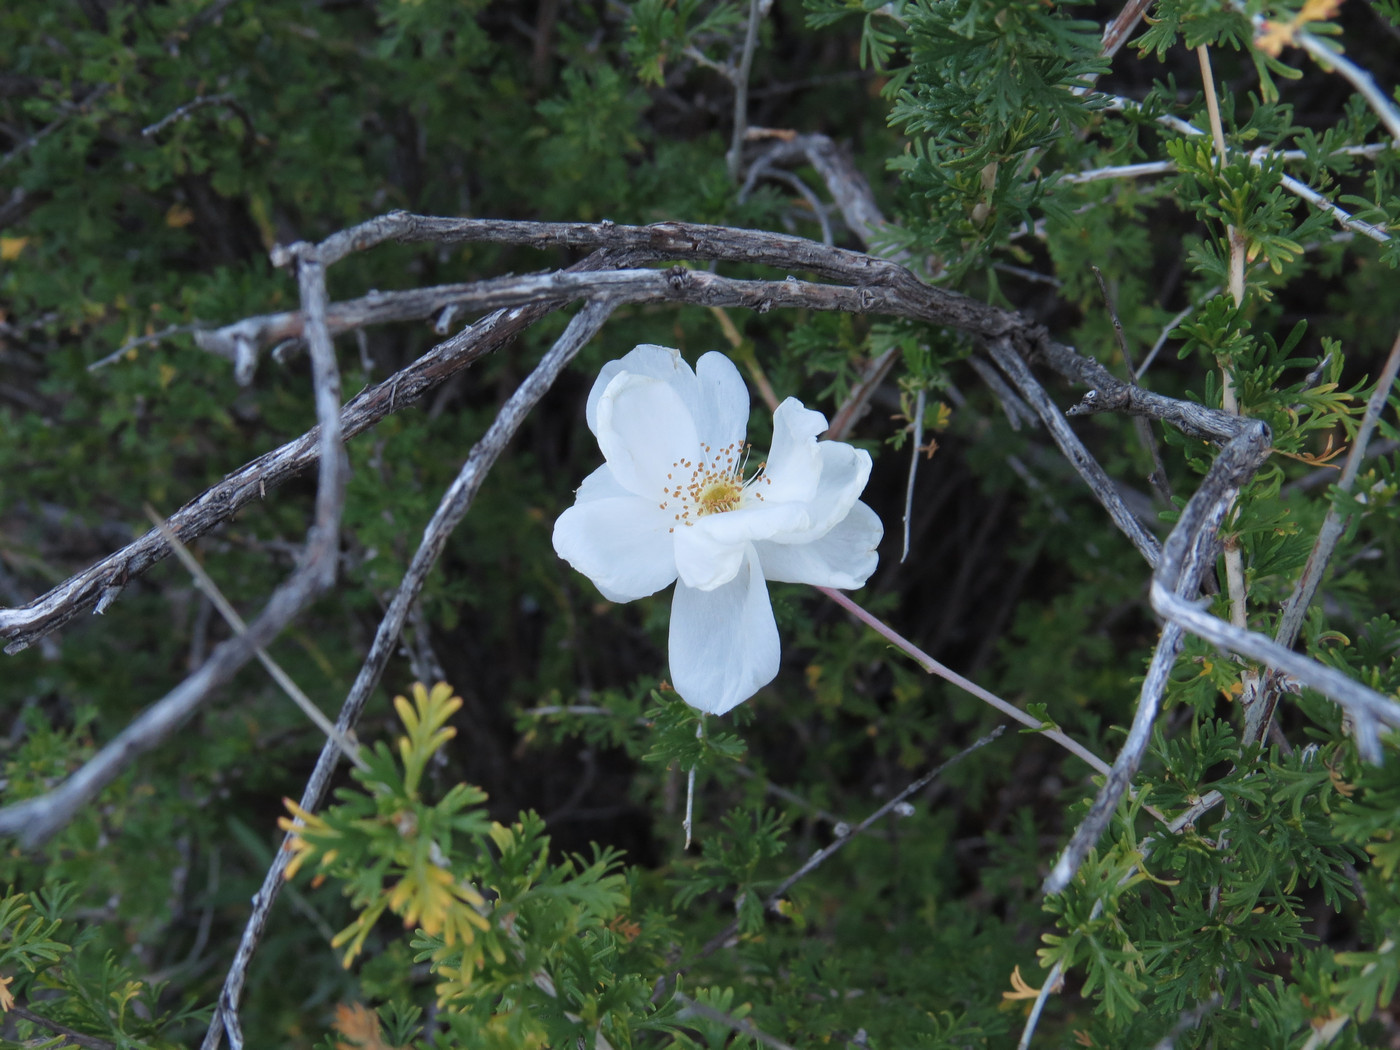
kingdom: Plantae
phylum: Tracheophyta
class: Magnoliopsida
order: Rosales
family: Rosaceae
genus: Fallugia
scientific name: Fallugia paradoxa
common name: Apache-plume
